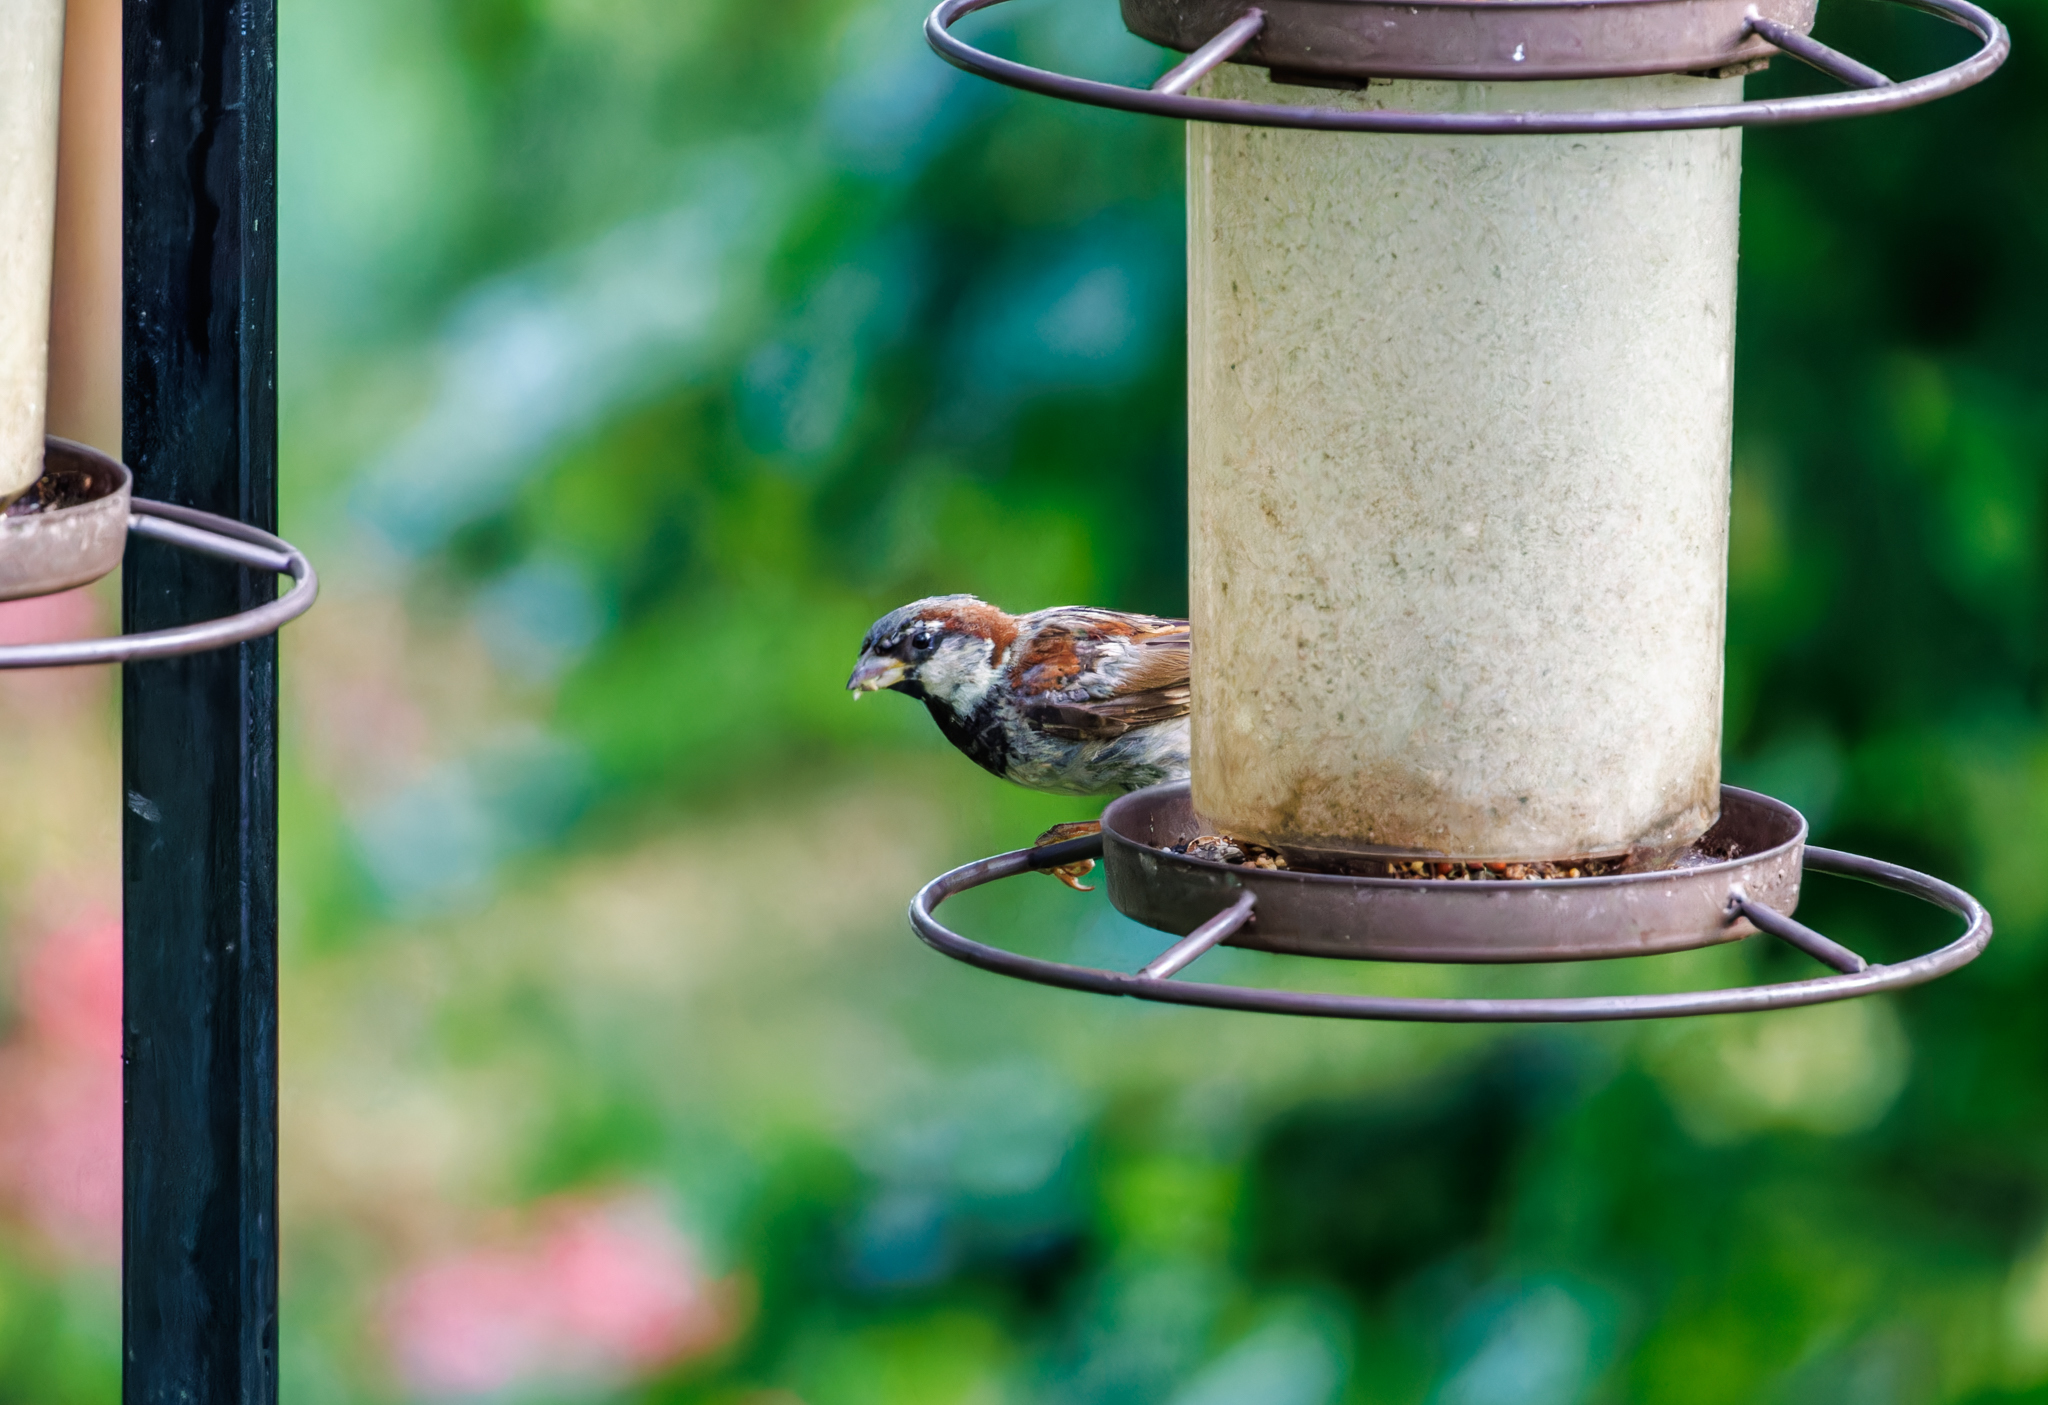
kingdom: Animalia
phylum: Chordata
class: Aves
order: Passeriformes
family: Passeridae
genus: Passer
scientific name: Passer domesticus
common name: House sparrow
